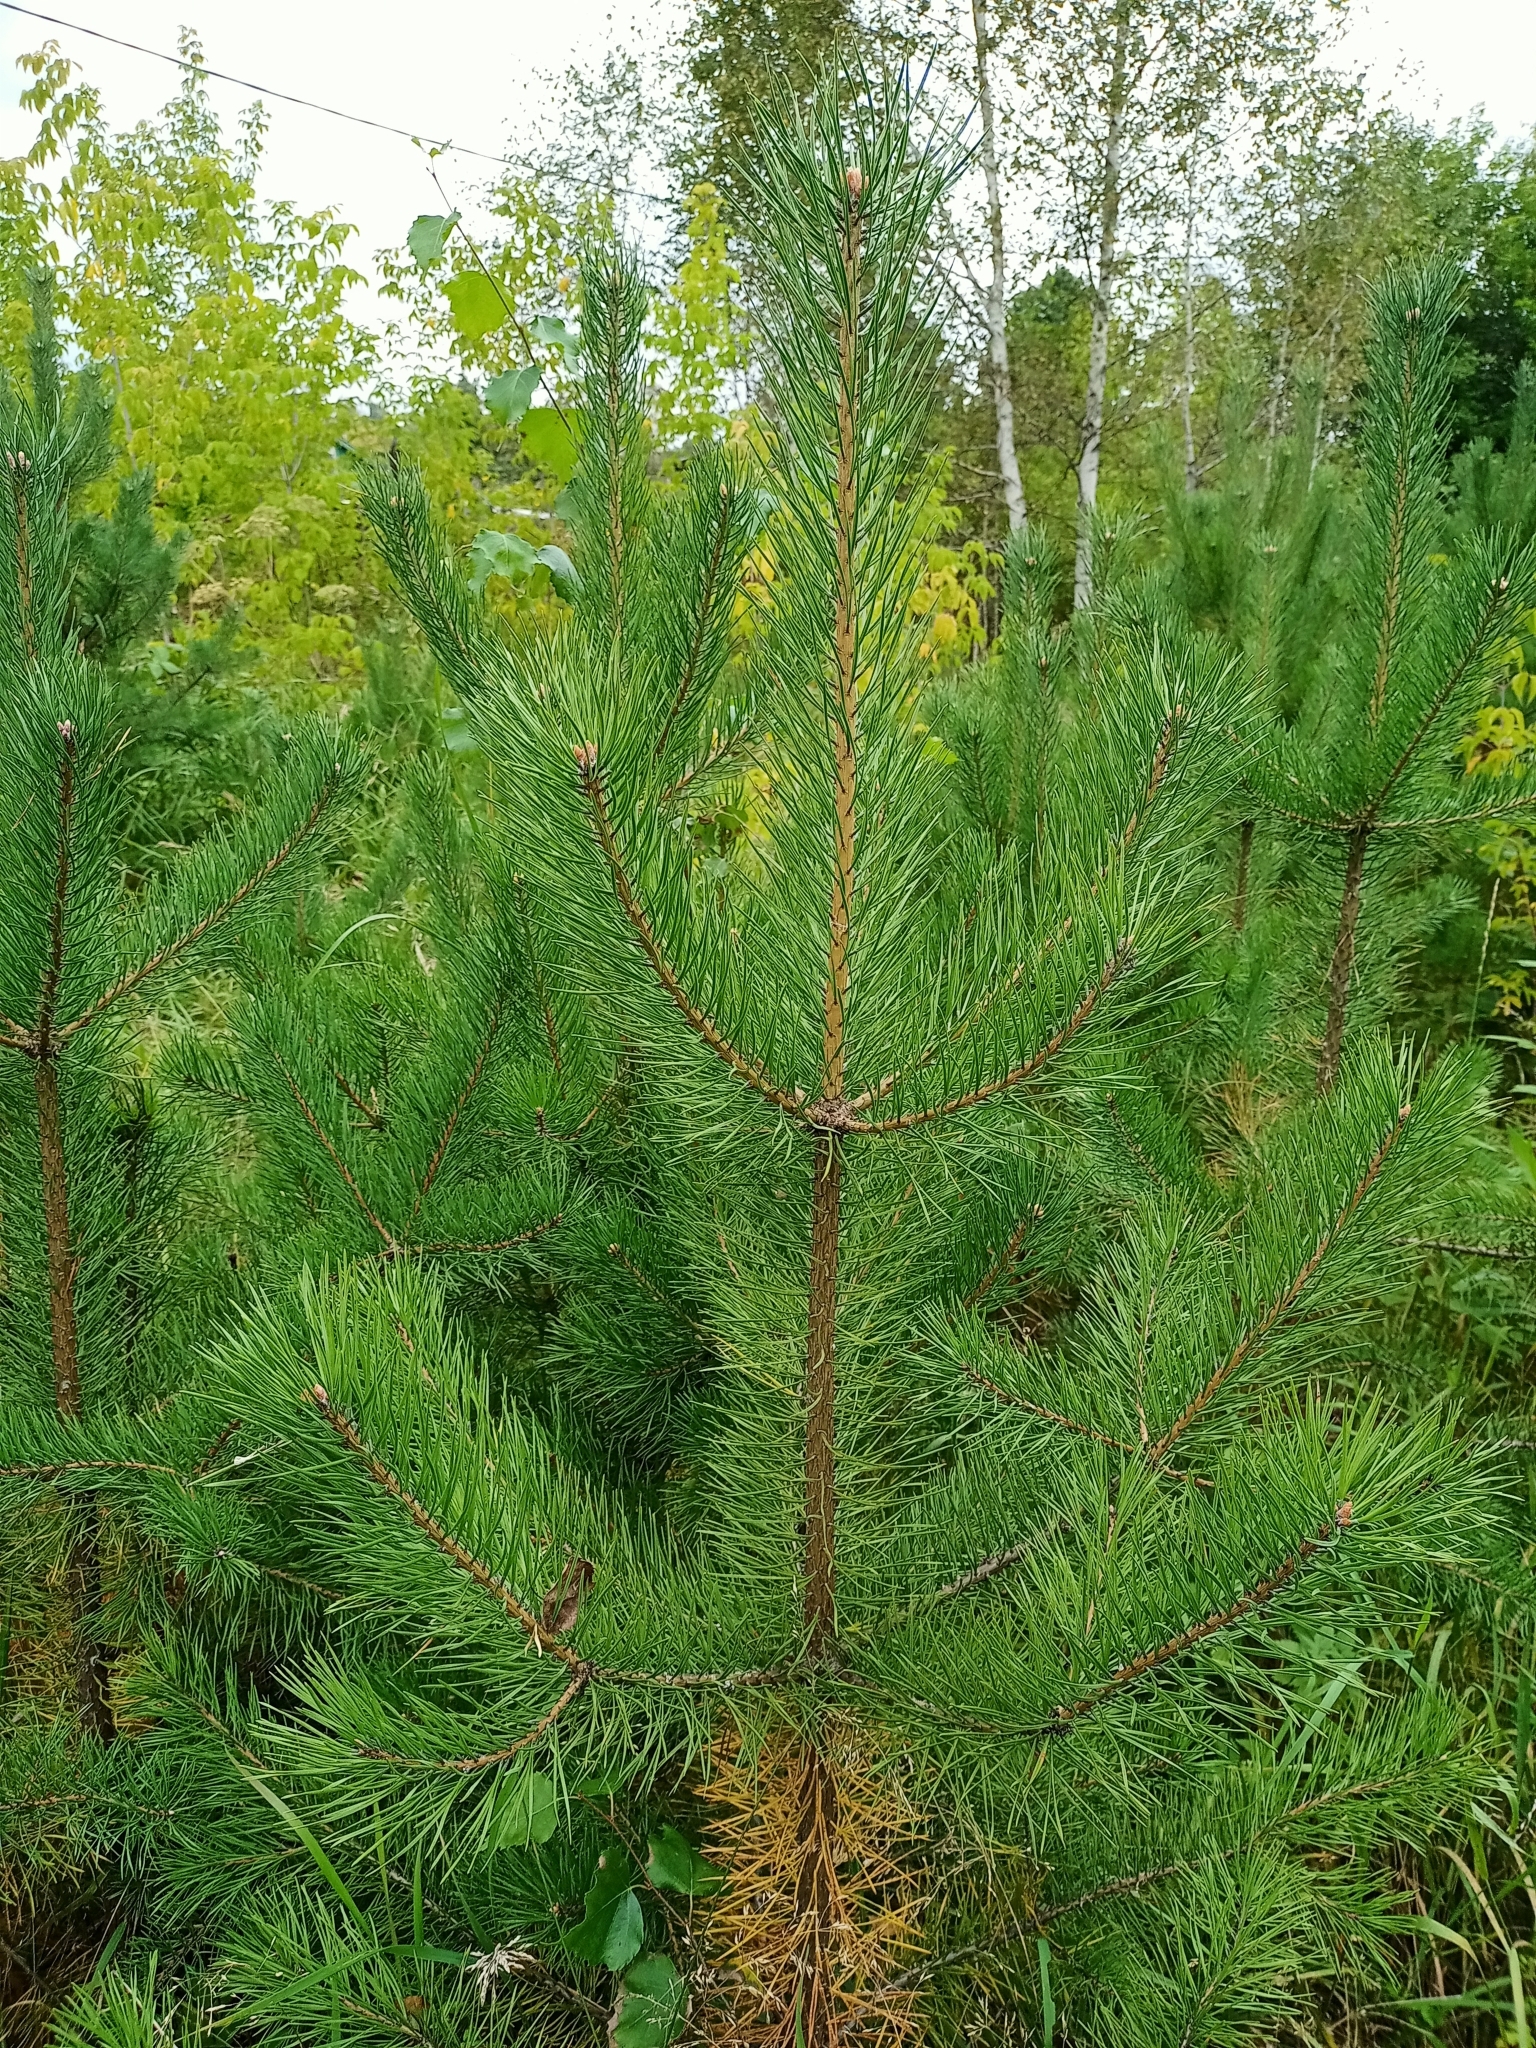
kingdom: Plantae
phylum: Tracheophyta
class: Pinopsida
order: Pinales
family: Pinaceae
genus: Pinus
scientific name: Pinus sylvestris
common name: Scots pine
